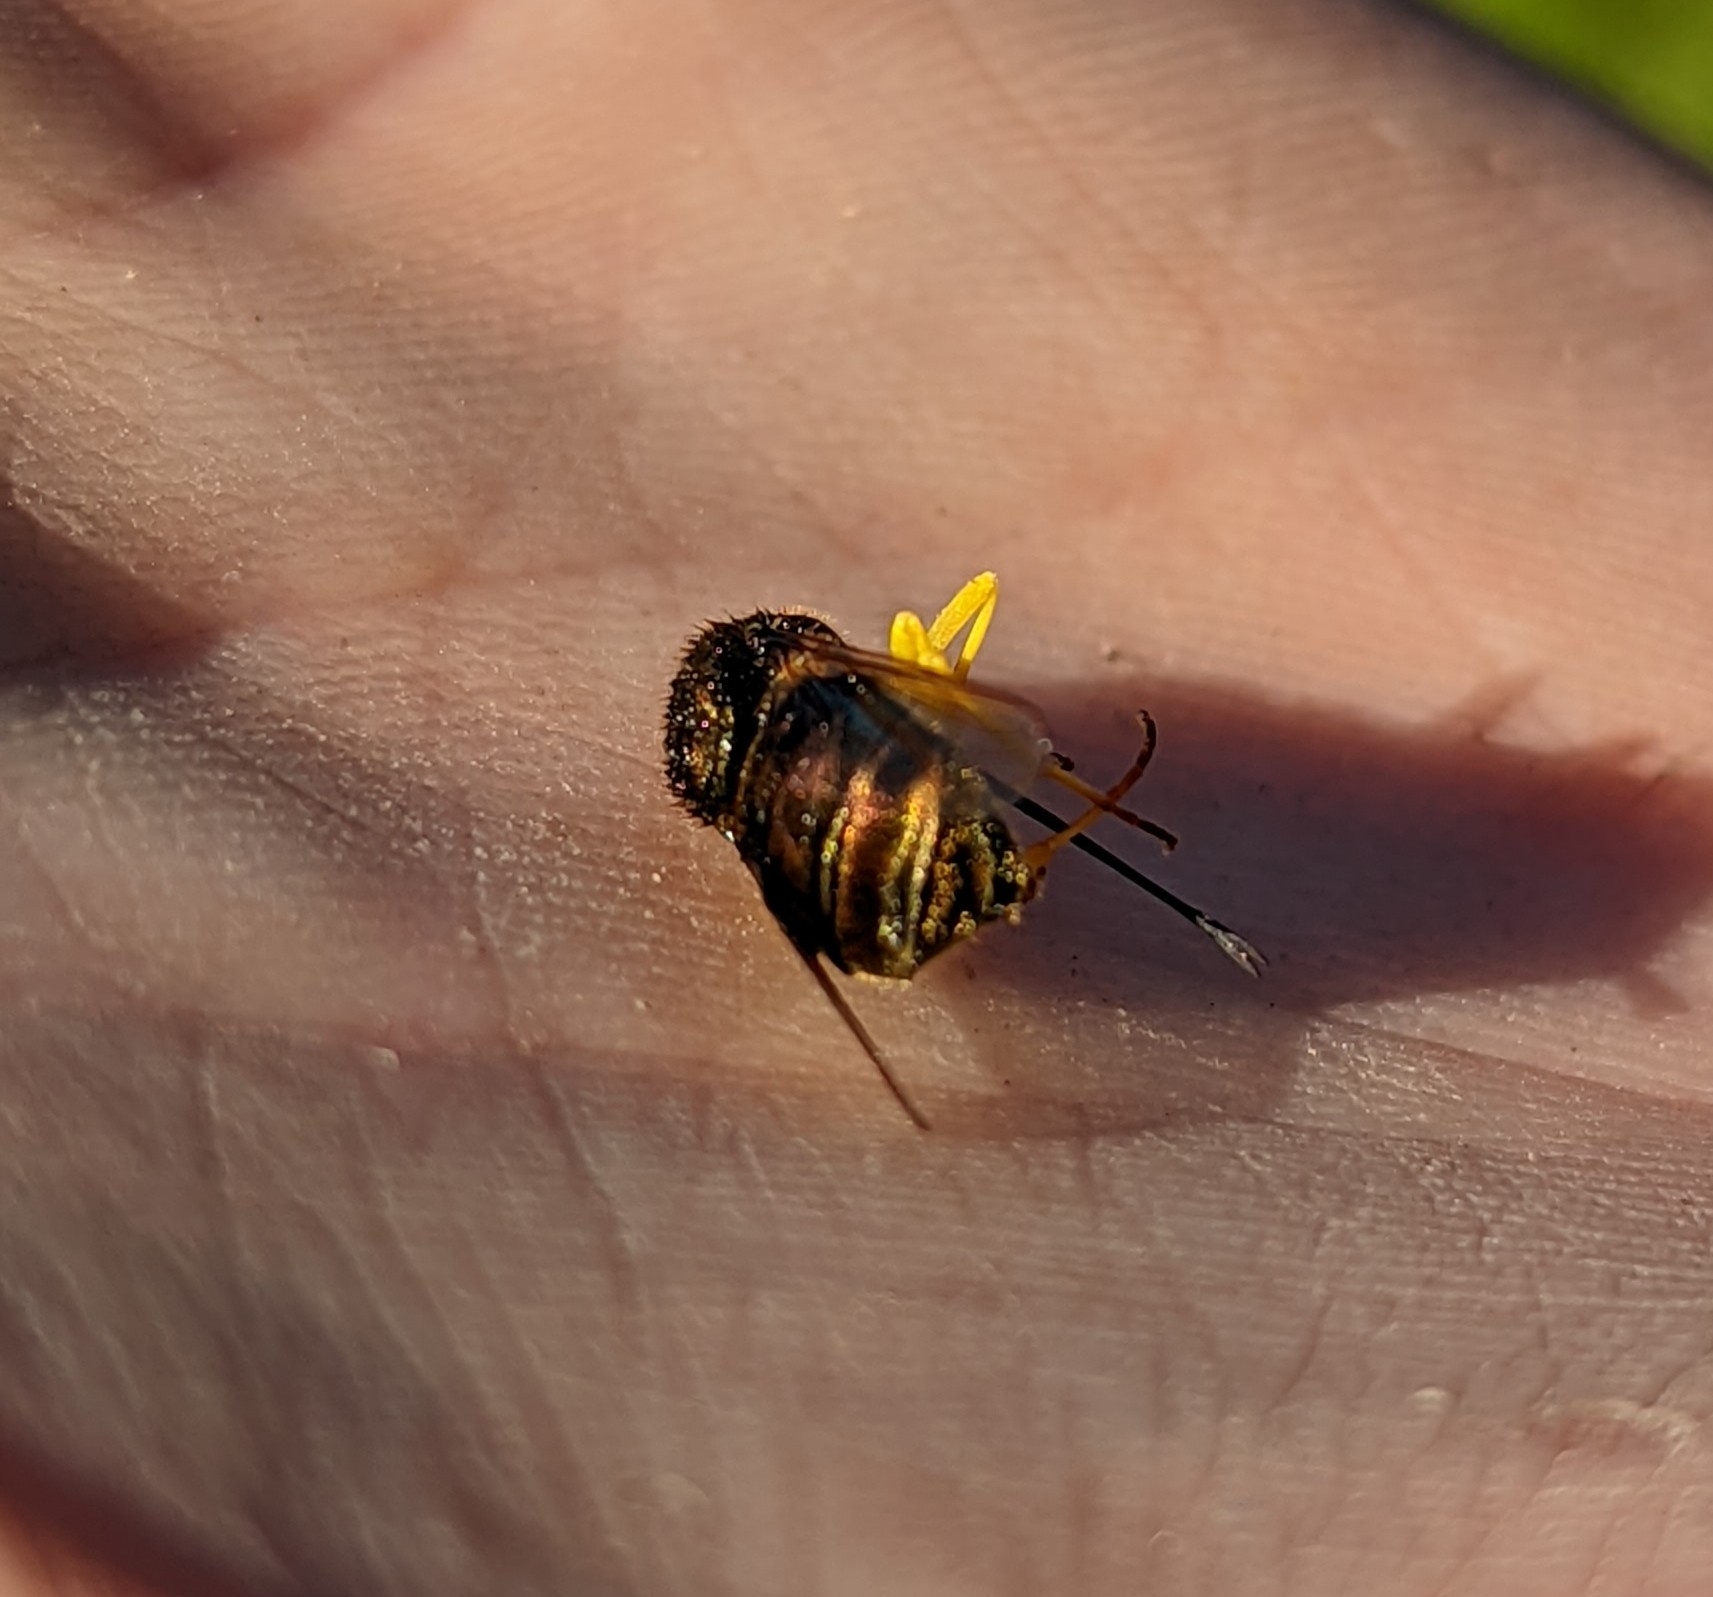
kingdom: Animalia
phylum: Arthropoda
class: Insecta
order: Diptera
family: Acroceridae
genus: Eulonchus
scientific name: Eulonchus sapphirinus
